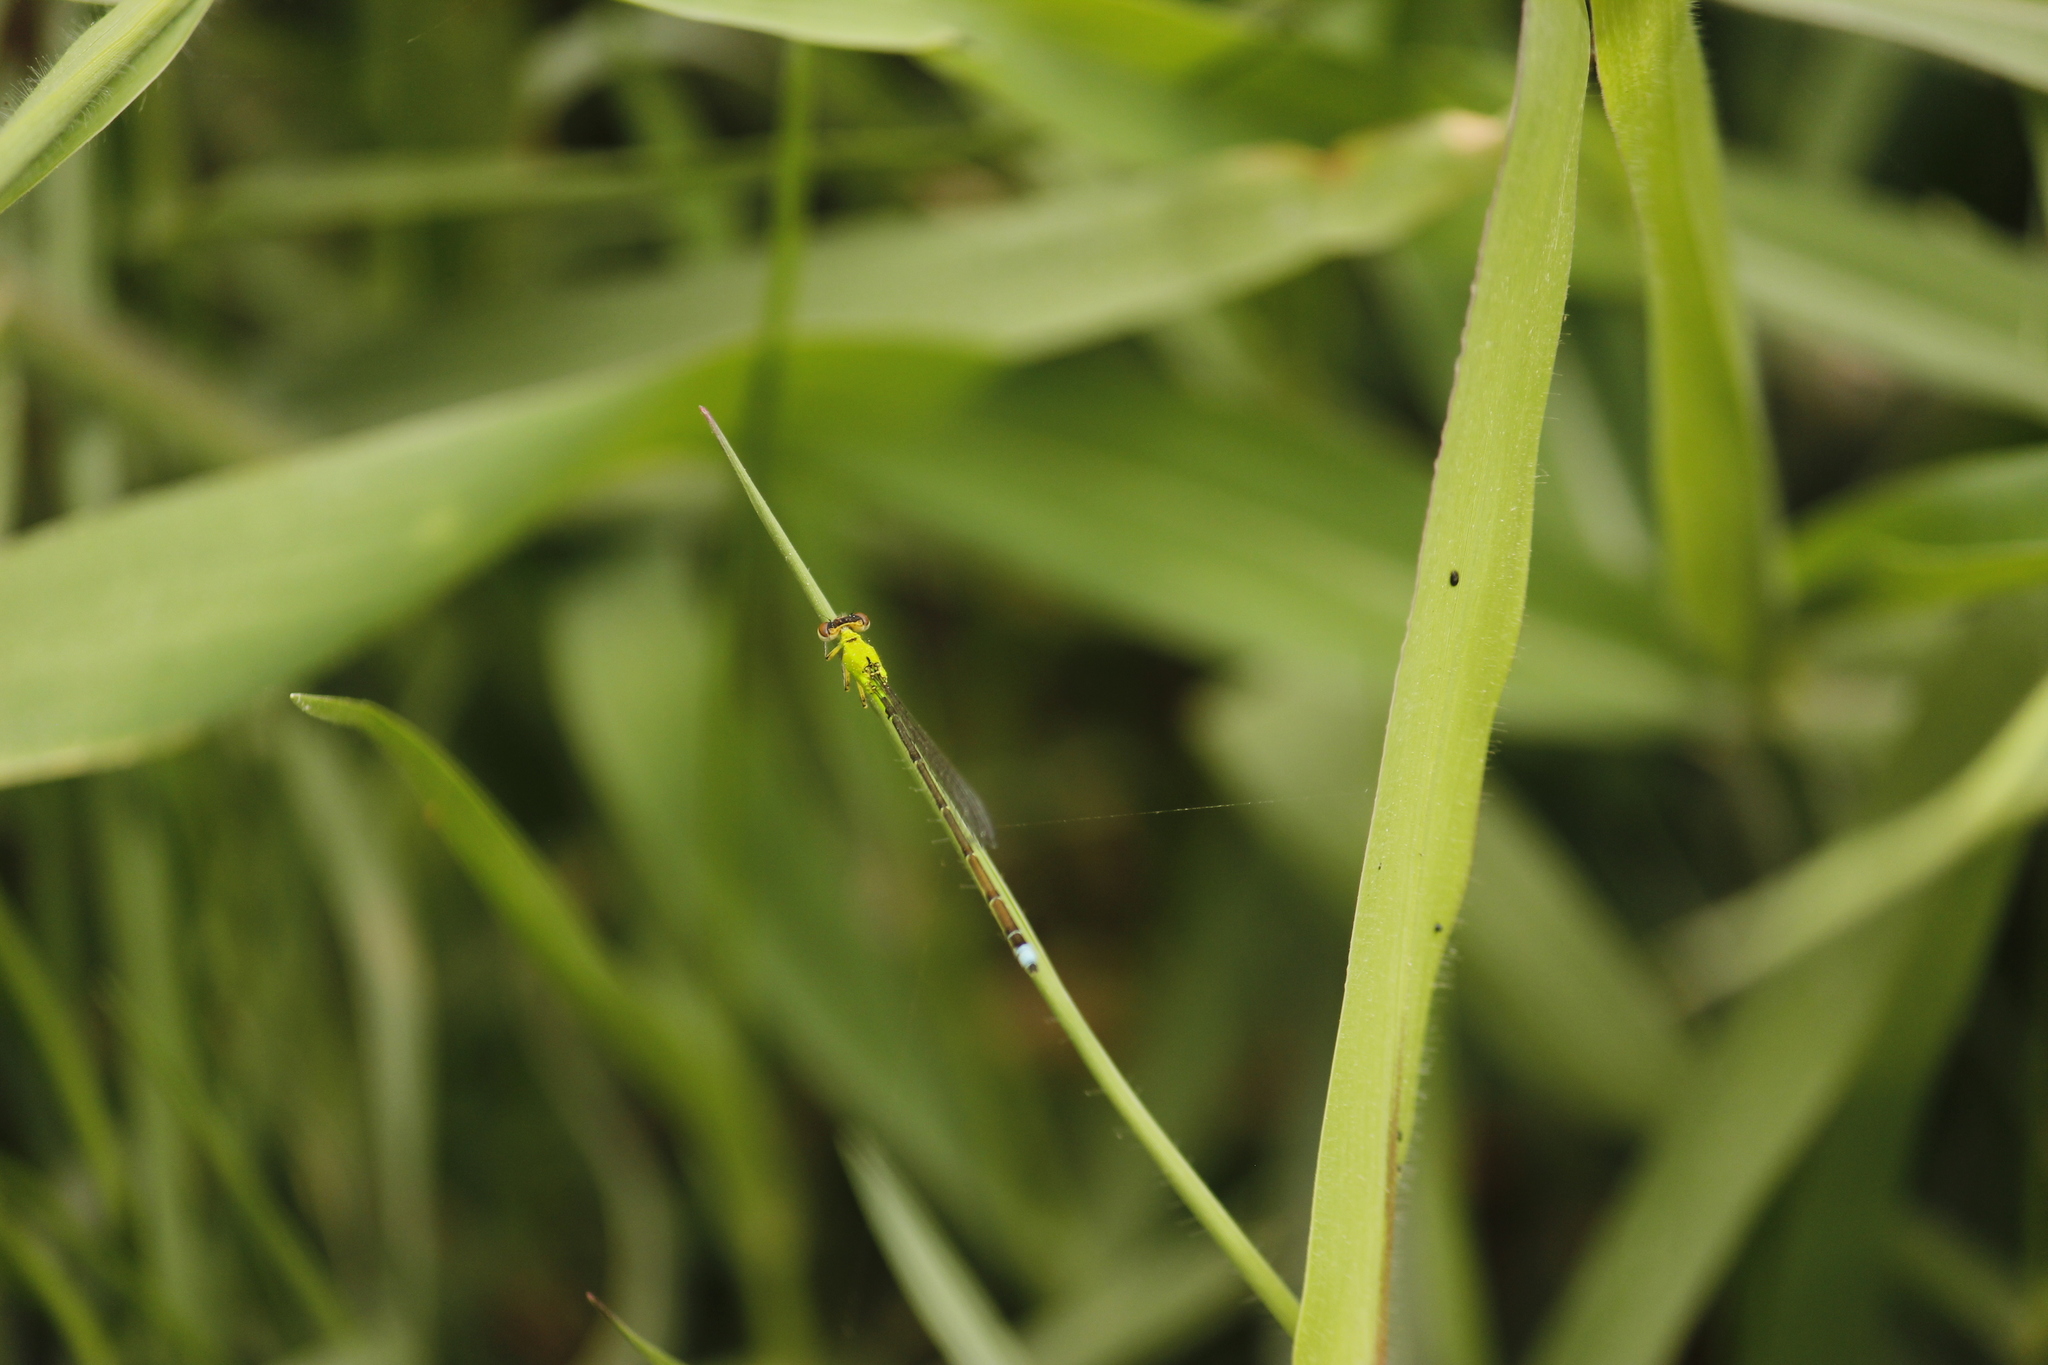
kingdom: Animalia
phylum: Arthropoda
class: Insecta
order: Odonata
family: Coenagrionidae
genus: Ischnura
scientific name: Ischnura capreolus
